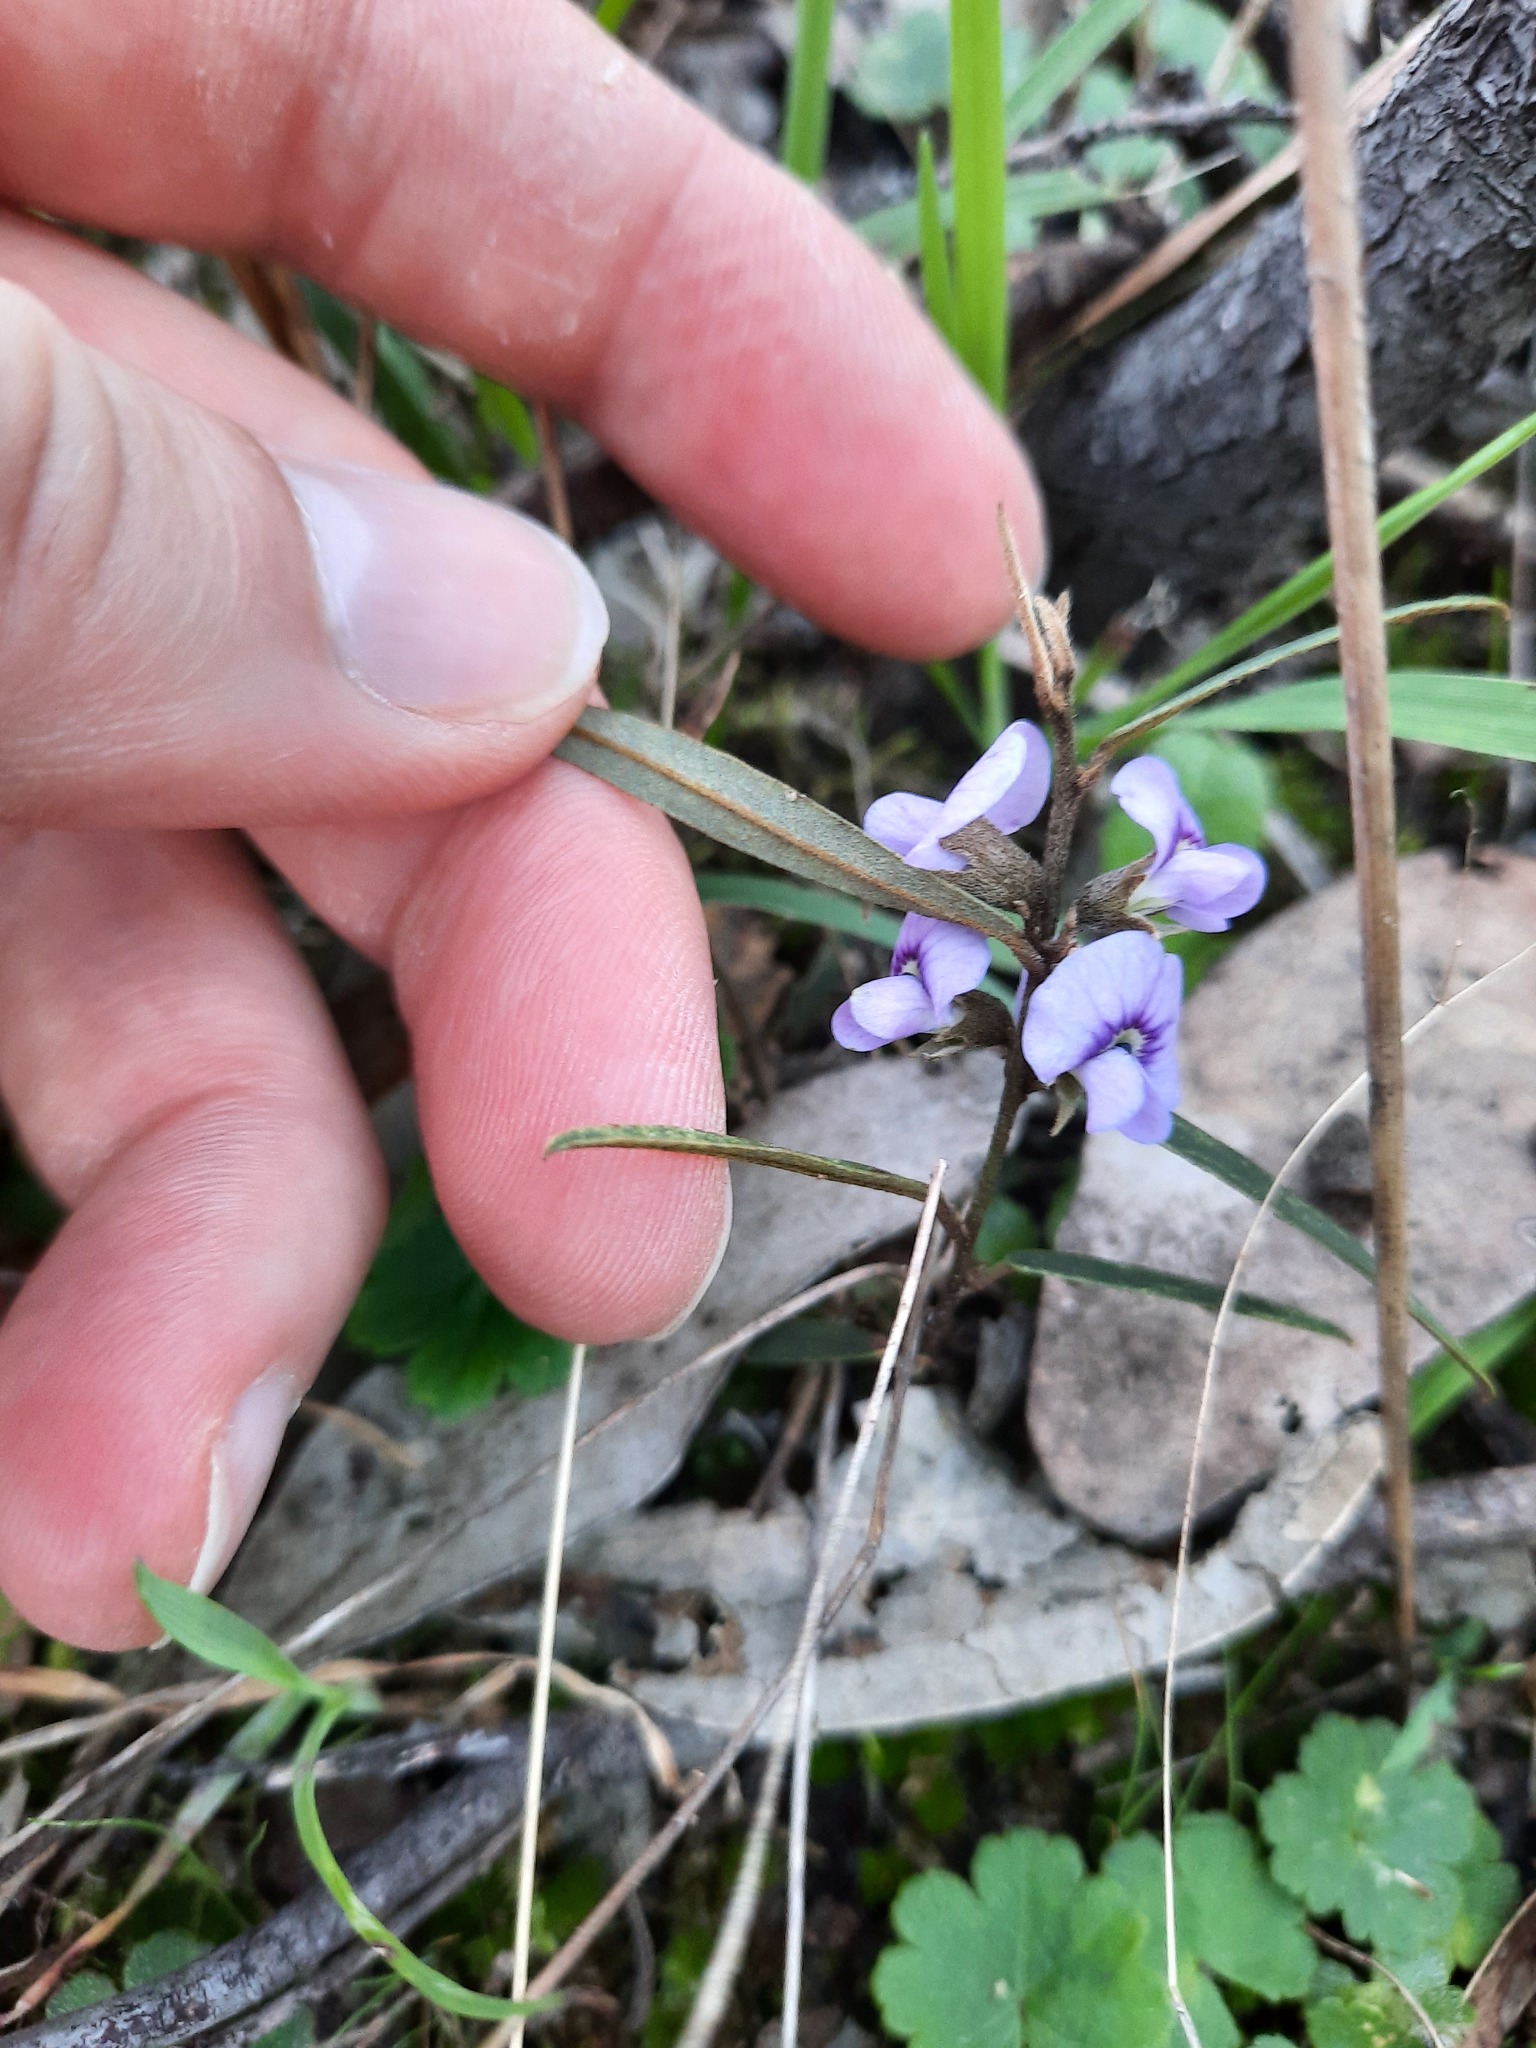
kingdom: Plantae
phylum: Tracheophyta
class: Magnoliopsida
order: Fabales
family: Fabaceae
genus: Hovea
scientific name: Hovea heterophylla
